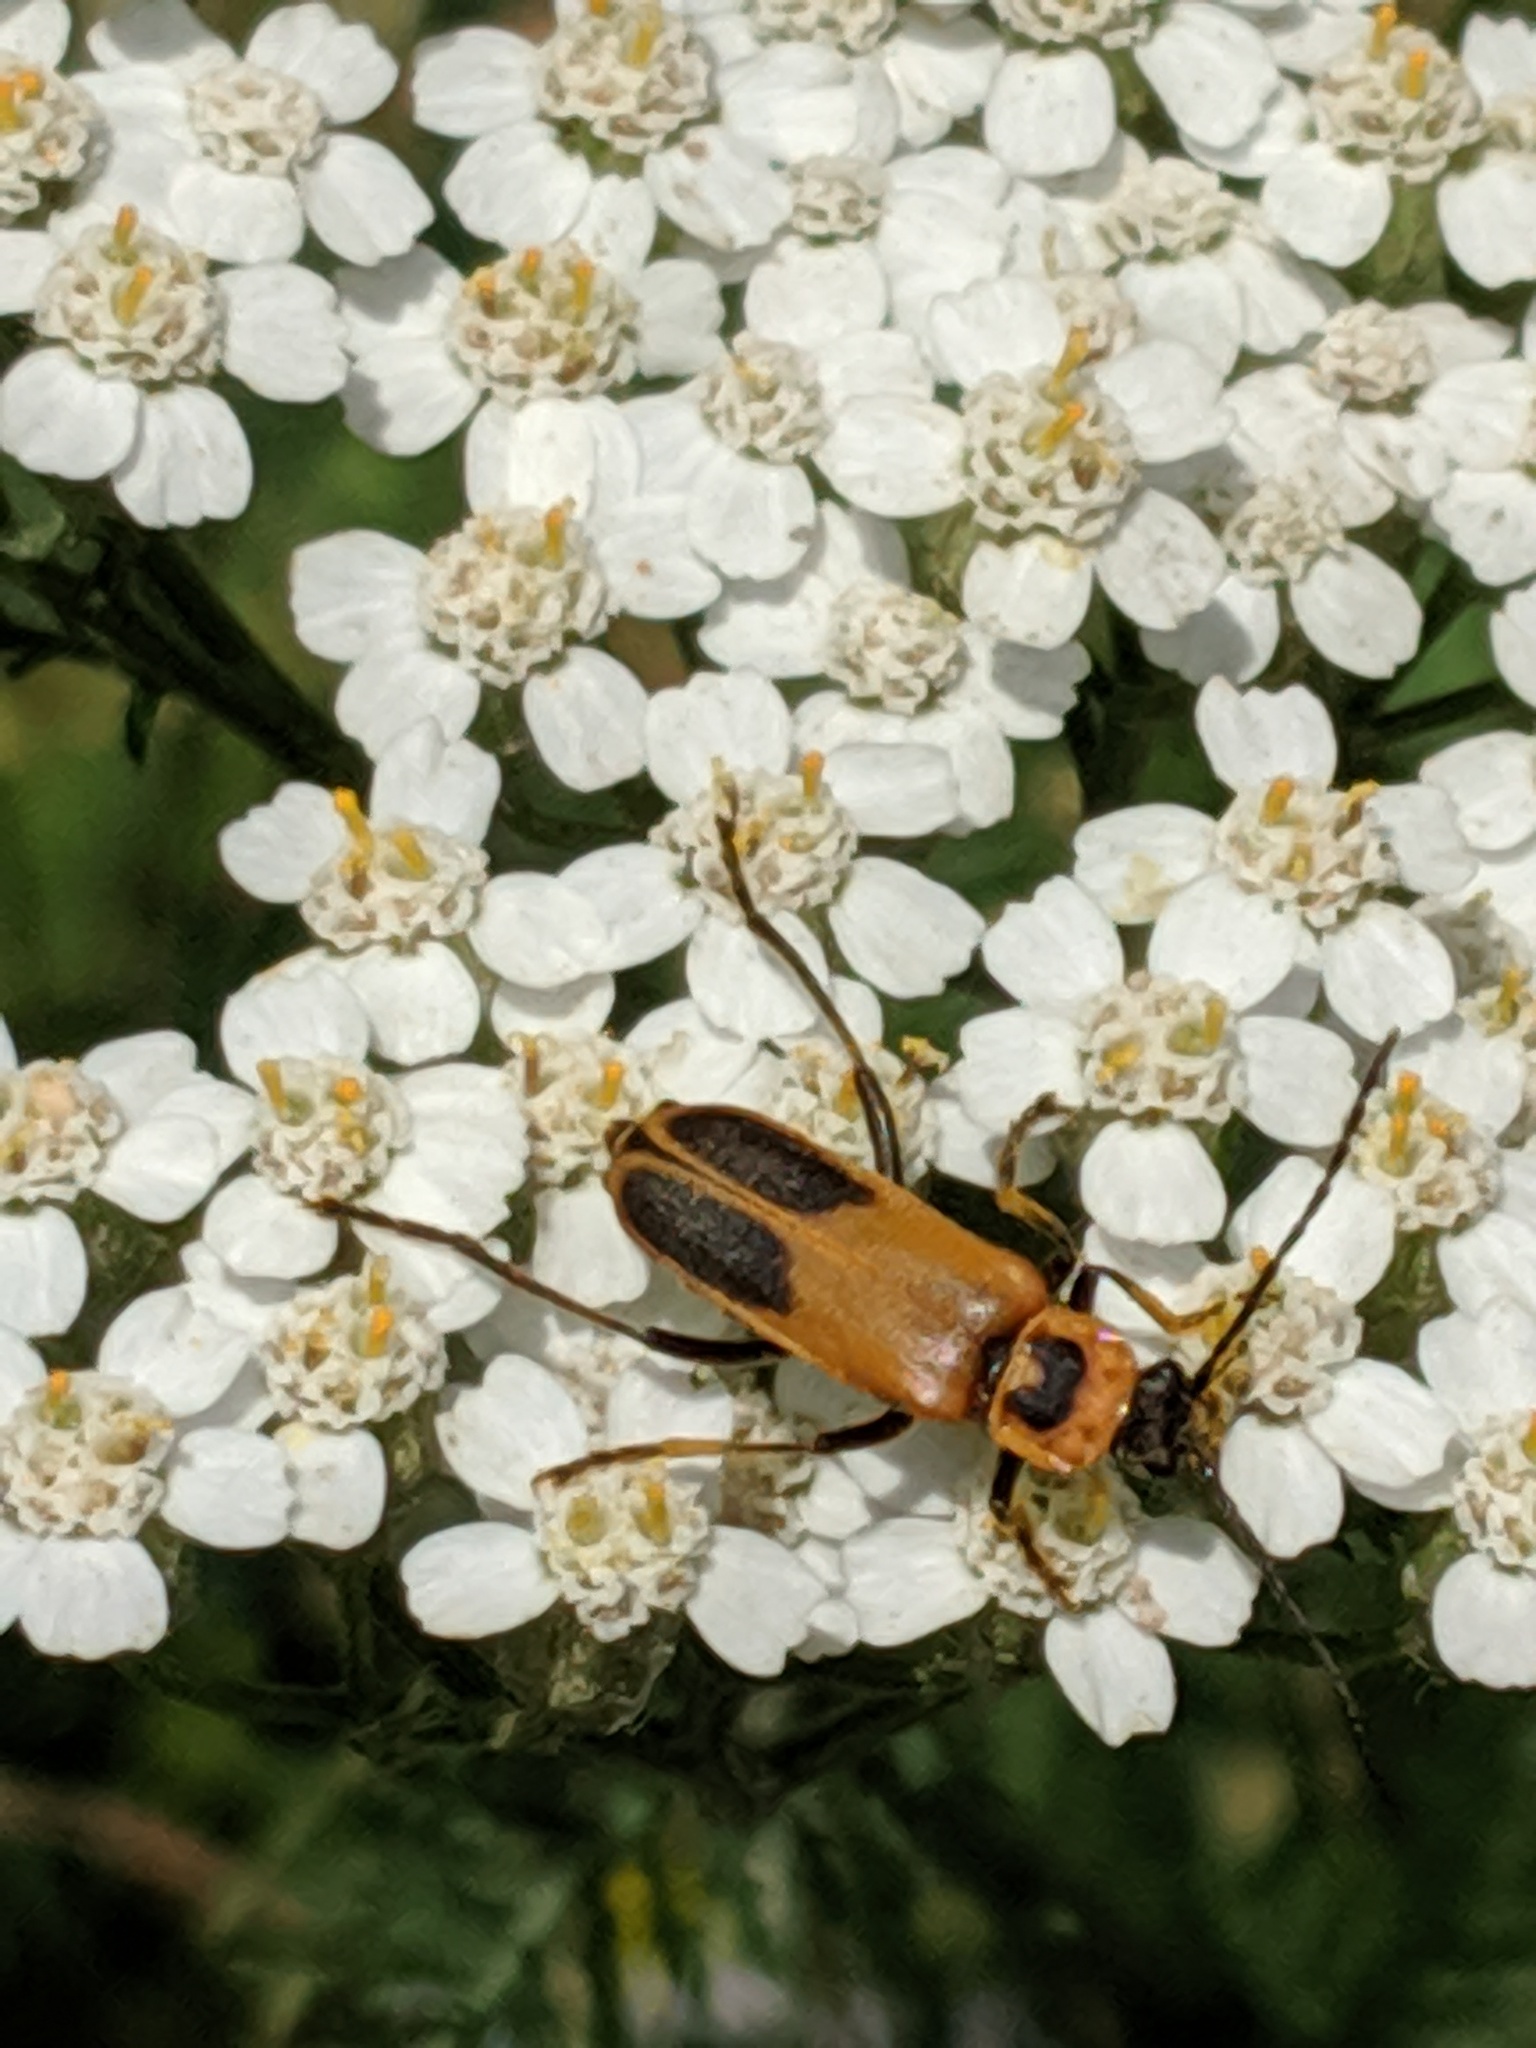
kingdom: Animalia
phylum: Arthropoda
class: Insecta
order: Coleoptera
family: Cantharidae
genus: Chauliognathus
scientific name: Chauliognathus pensylvanicus
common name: Goldenrod soldier beetle
